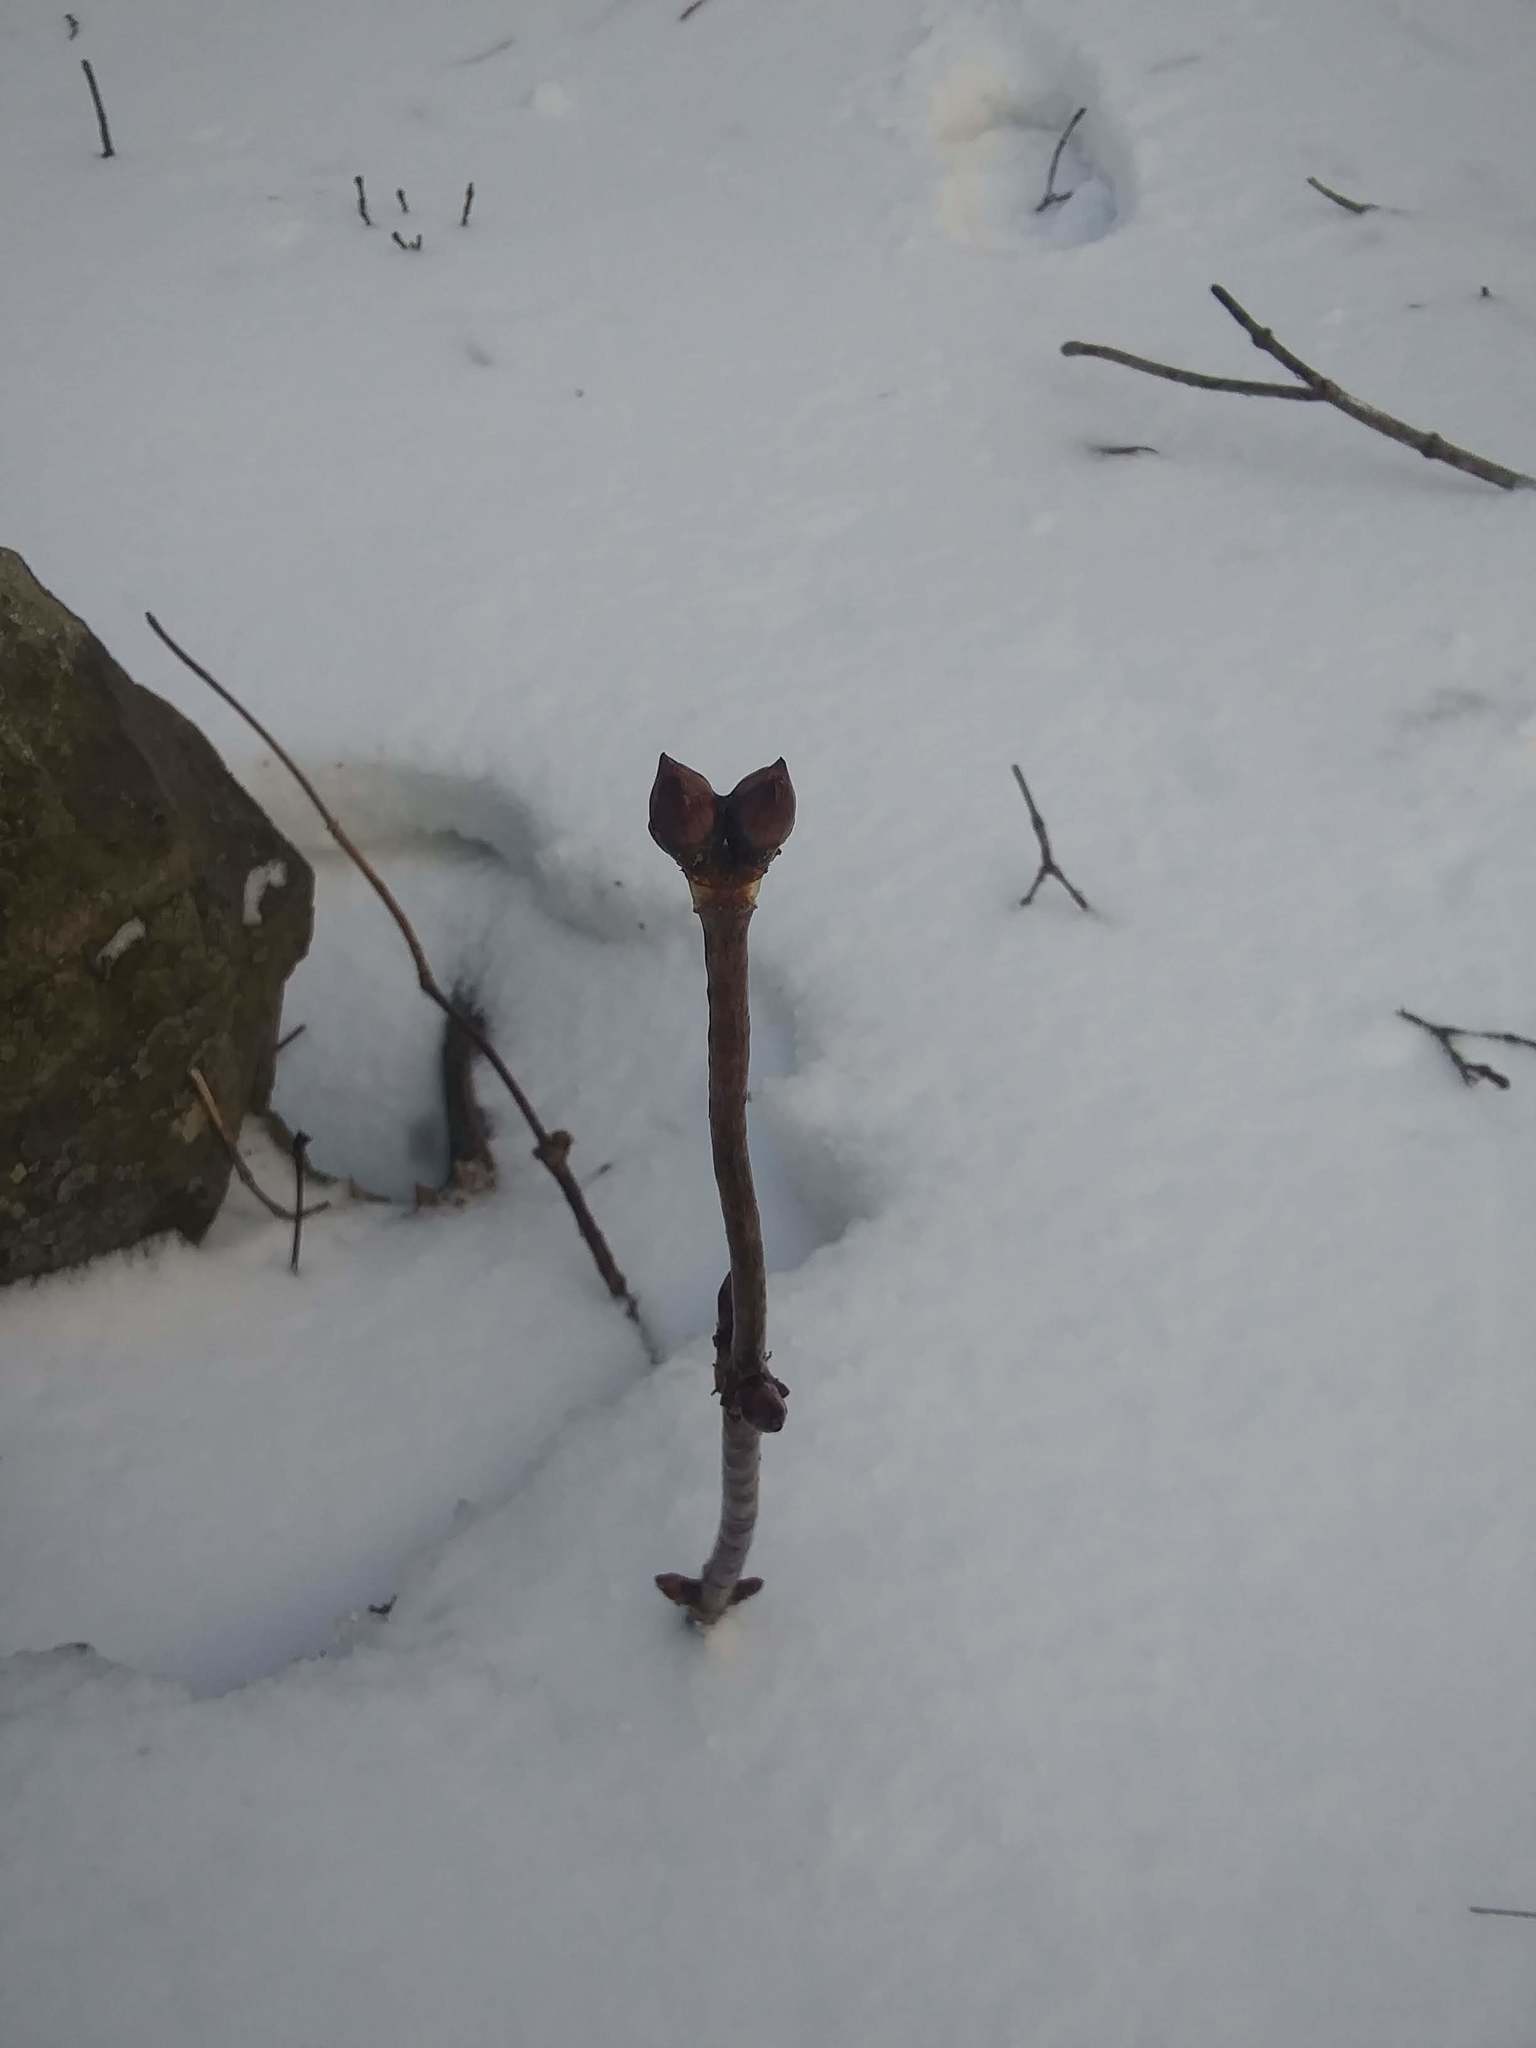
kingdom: Plantae
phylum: Tracheophyta
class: Magnoliopsida
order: Dipsacales
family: Viburnaceae
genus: Sambucus
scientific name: Sambucus racemosa
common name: Red-berried elder
